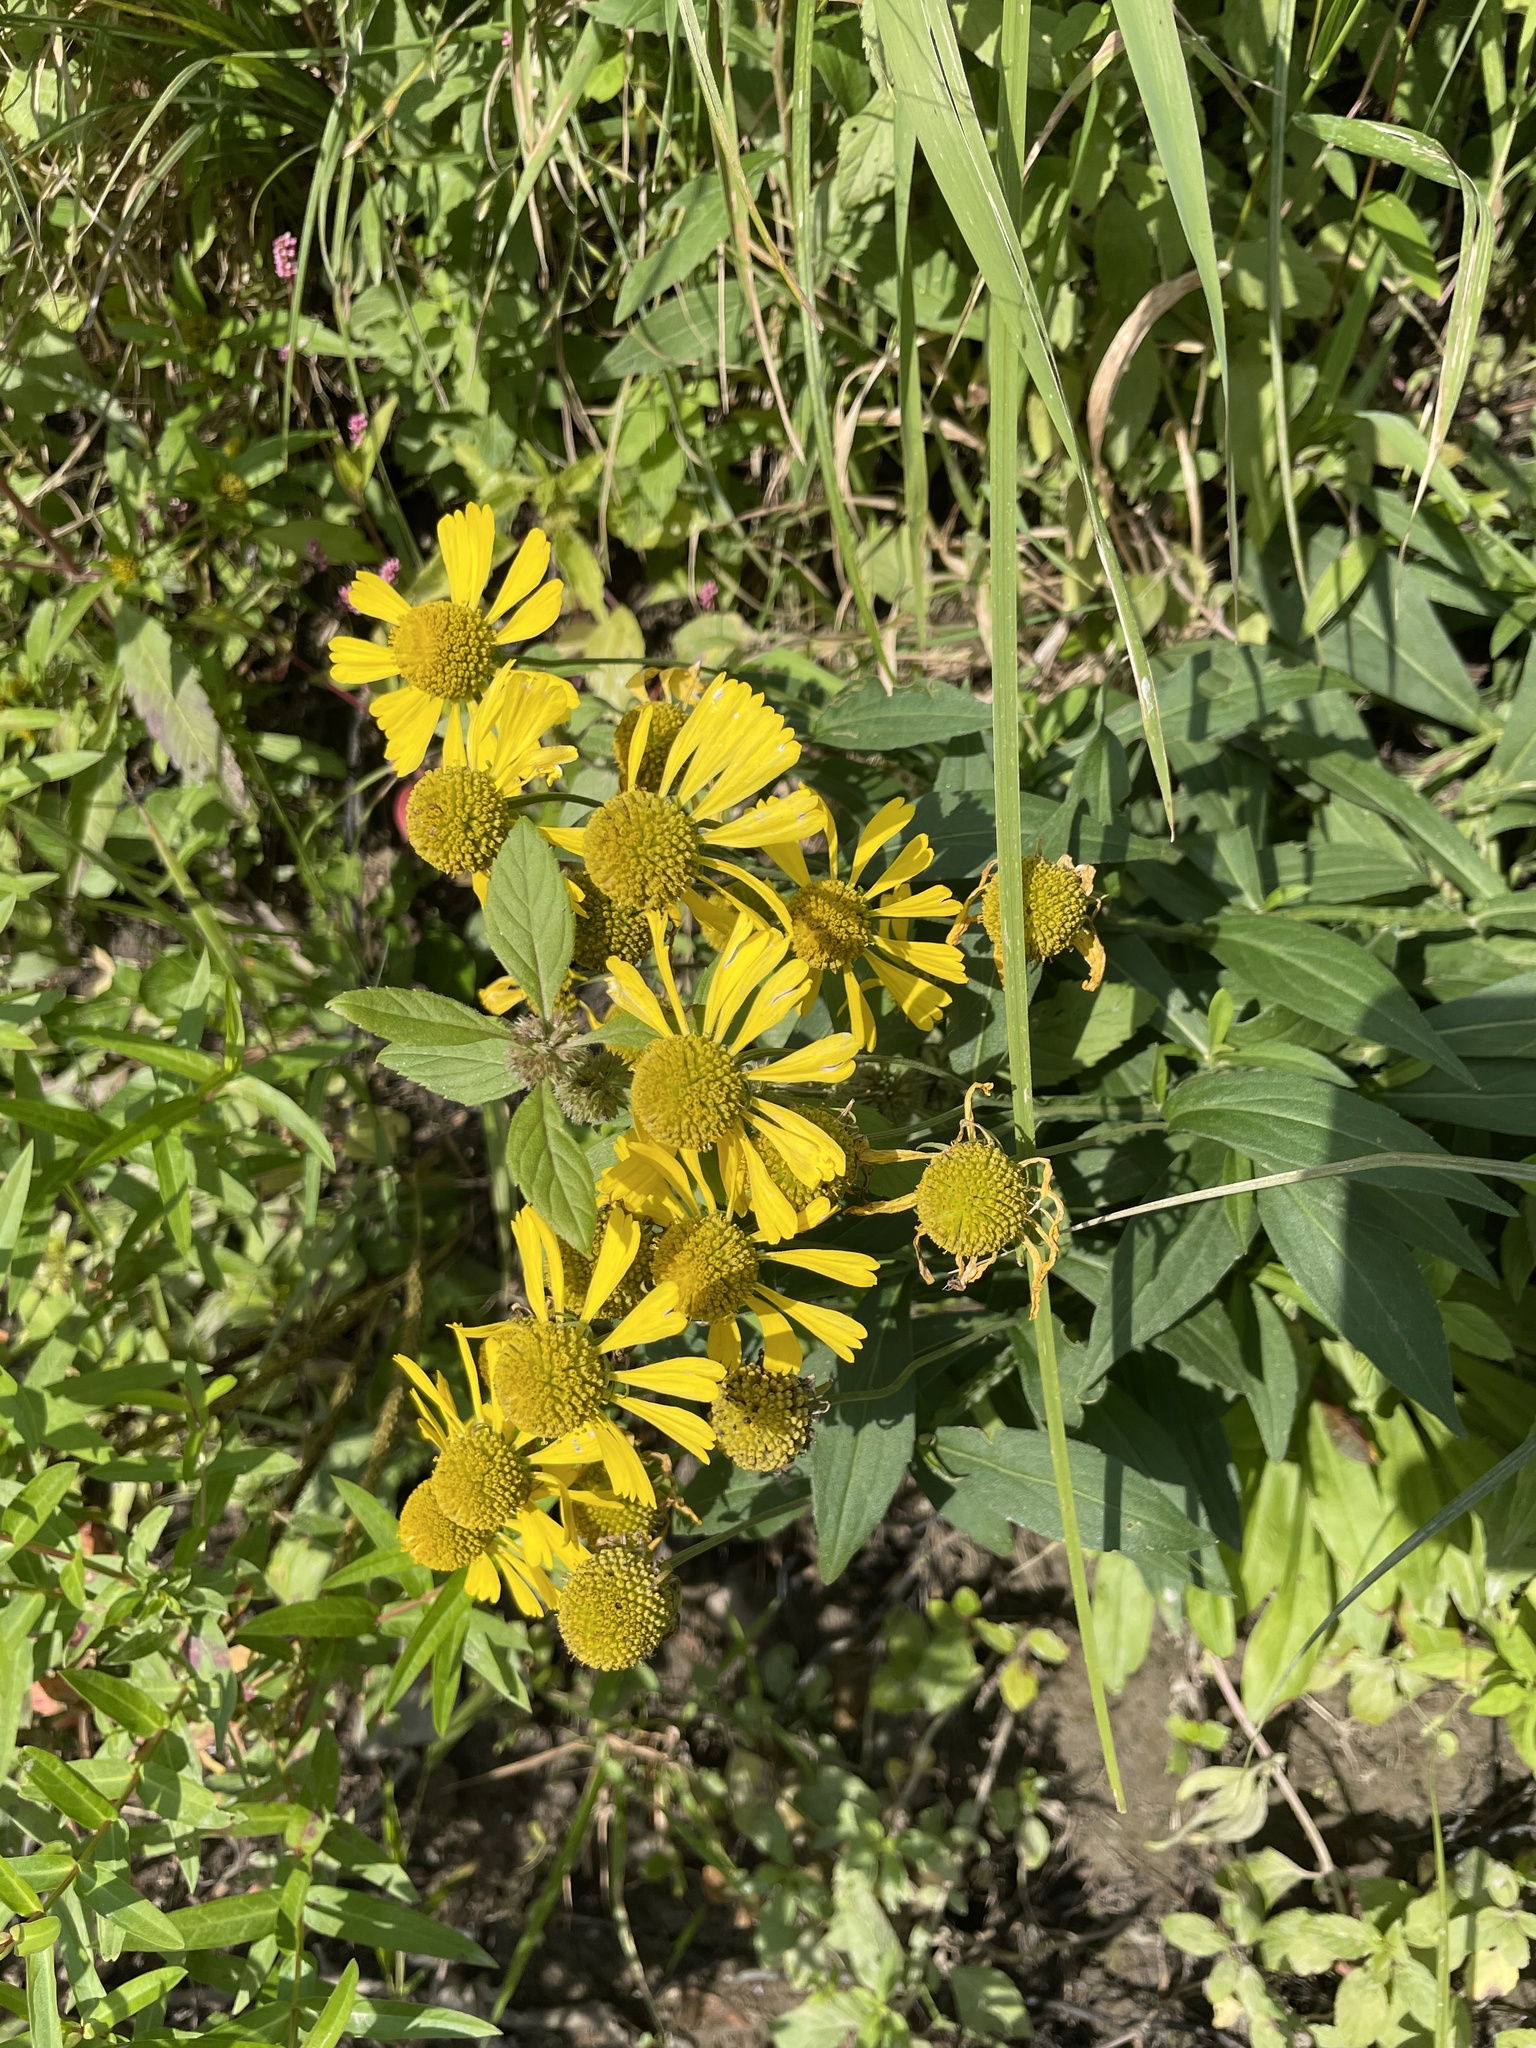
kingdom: Plantae
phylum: Tracheophyta
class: Magnoliopsida
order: Asterales
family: Asteraceae
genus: Helenium
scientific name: Helenium autumnale
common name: Sneezeweed
